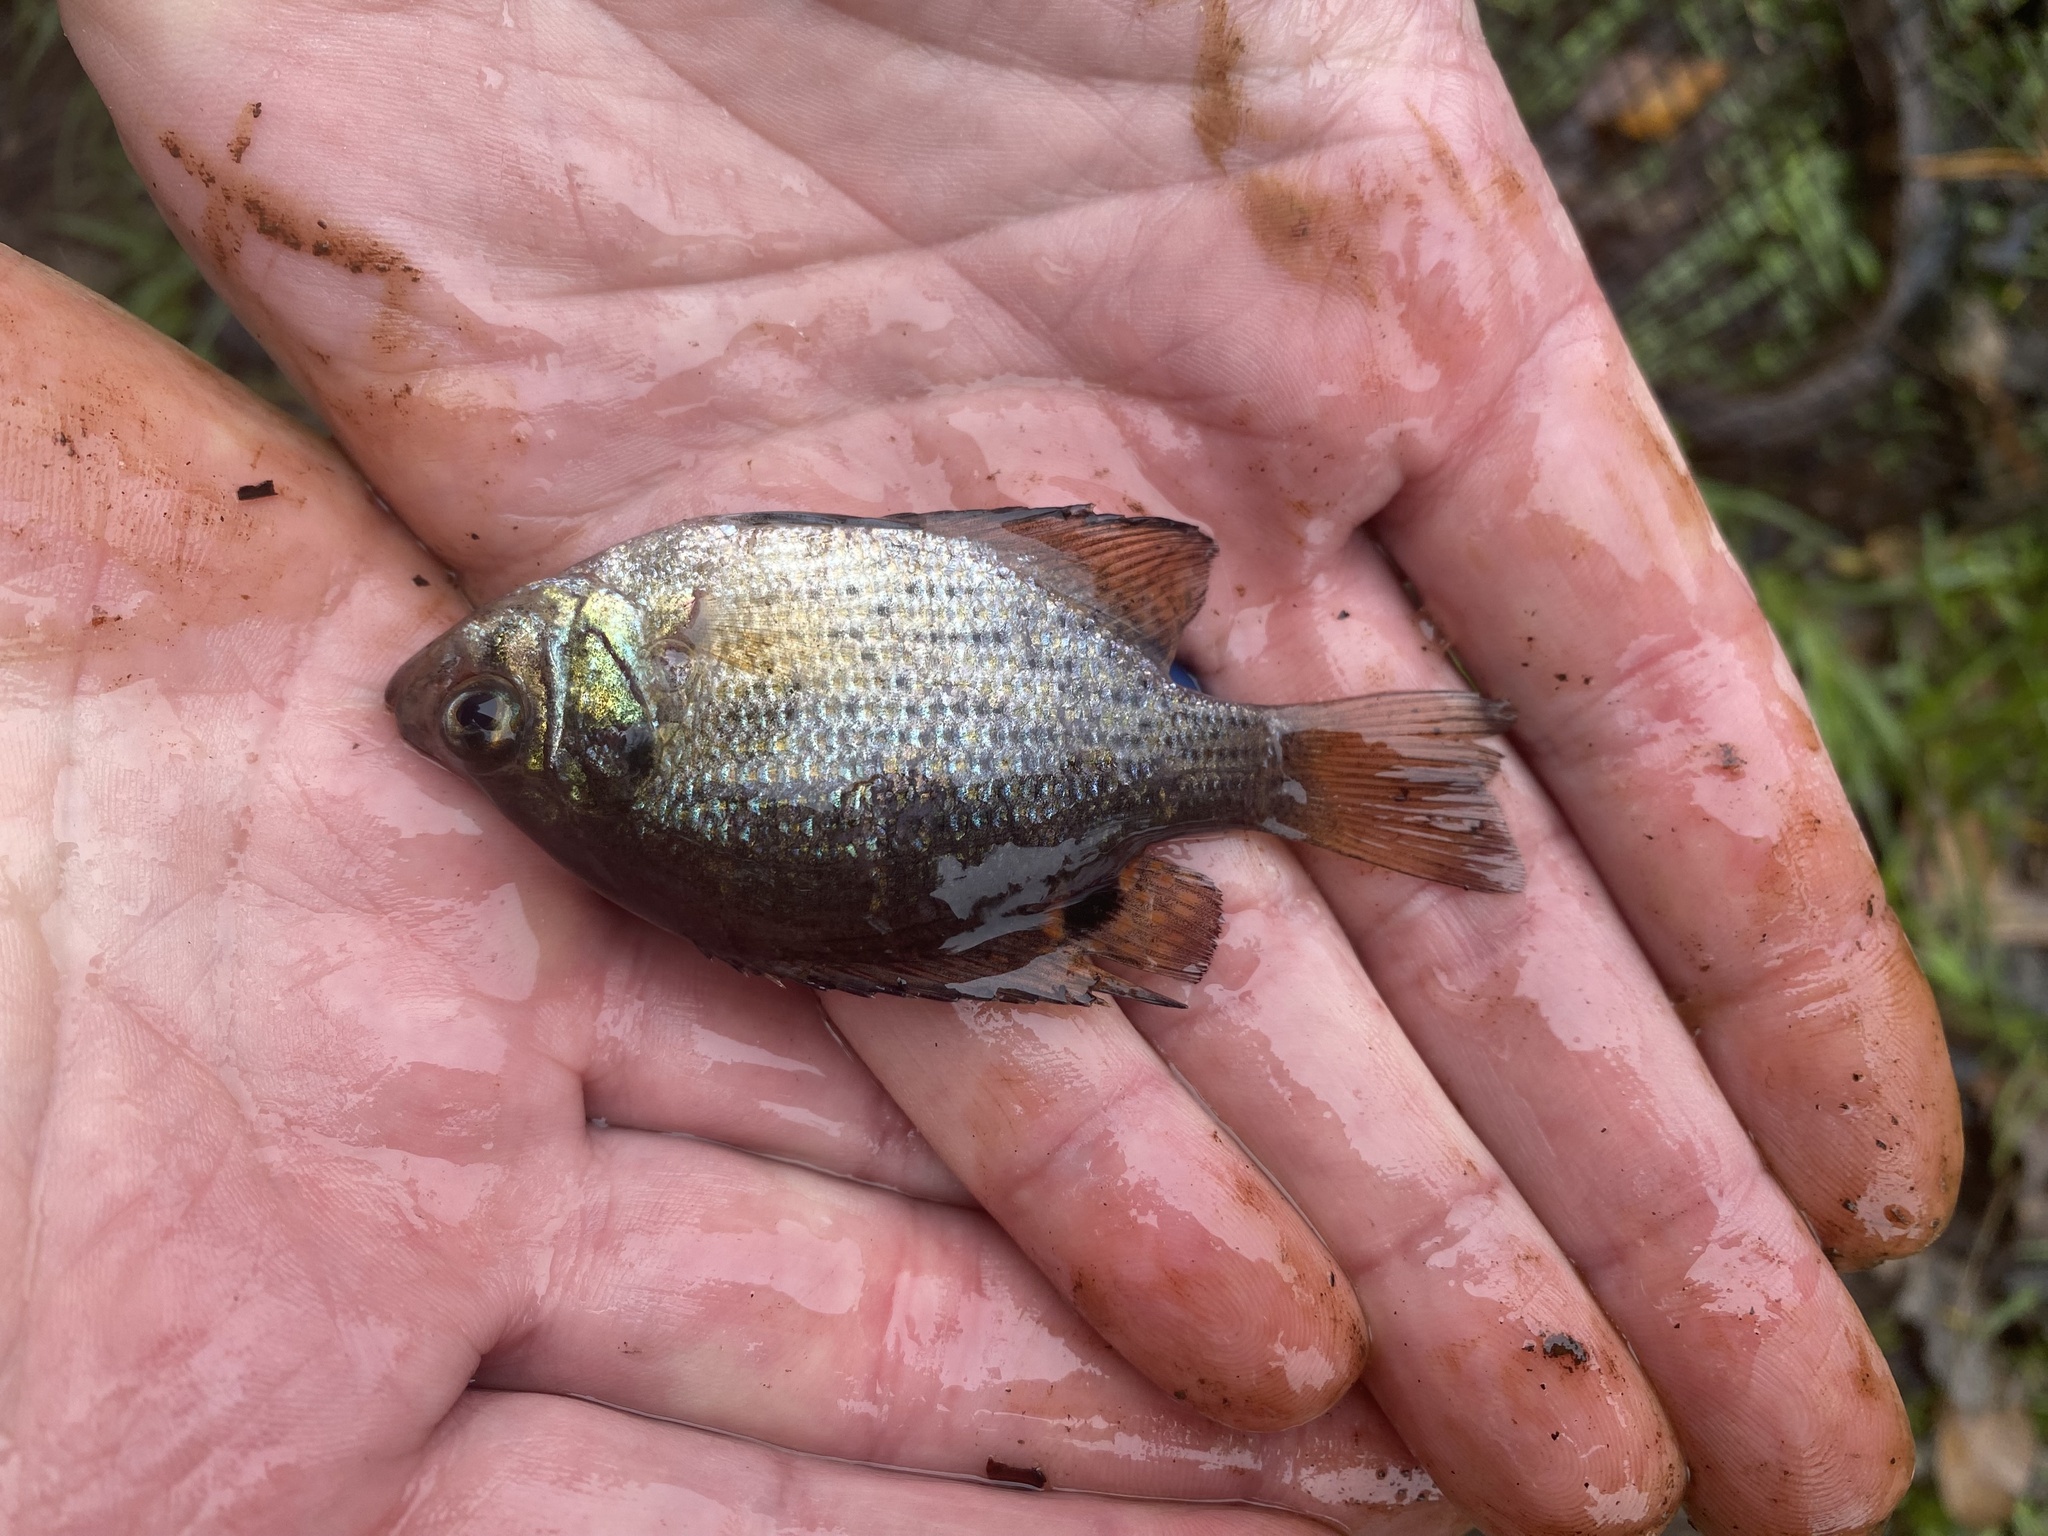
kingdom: Animalia
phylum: Chordata
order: Perciformes
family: Centrarchidae
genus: Centrarchus
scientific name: Centrarchus macropterus
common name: Flier
